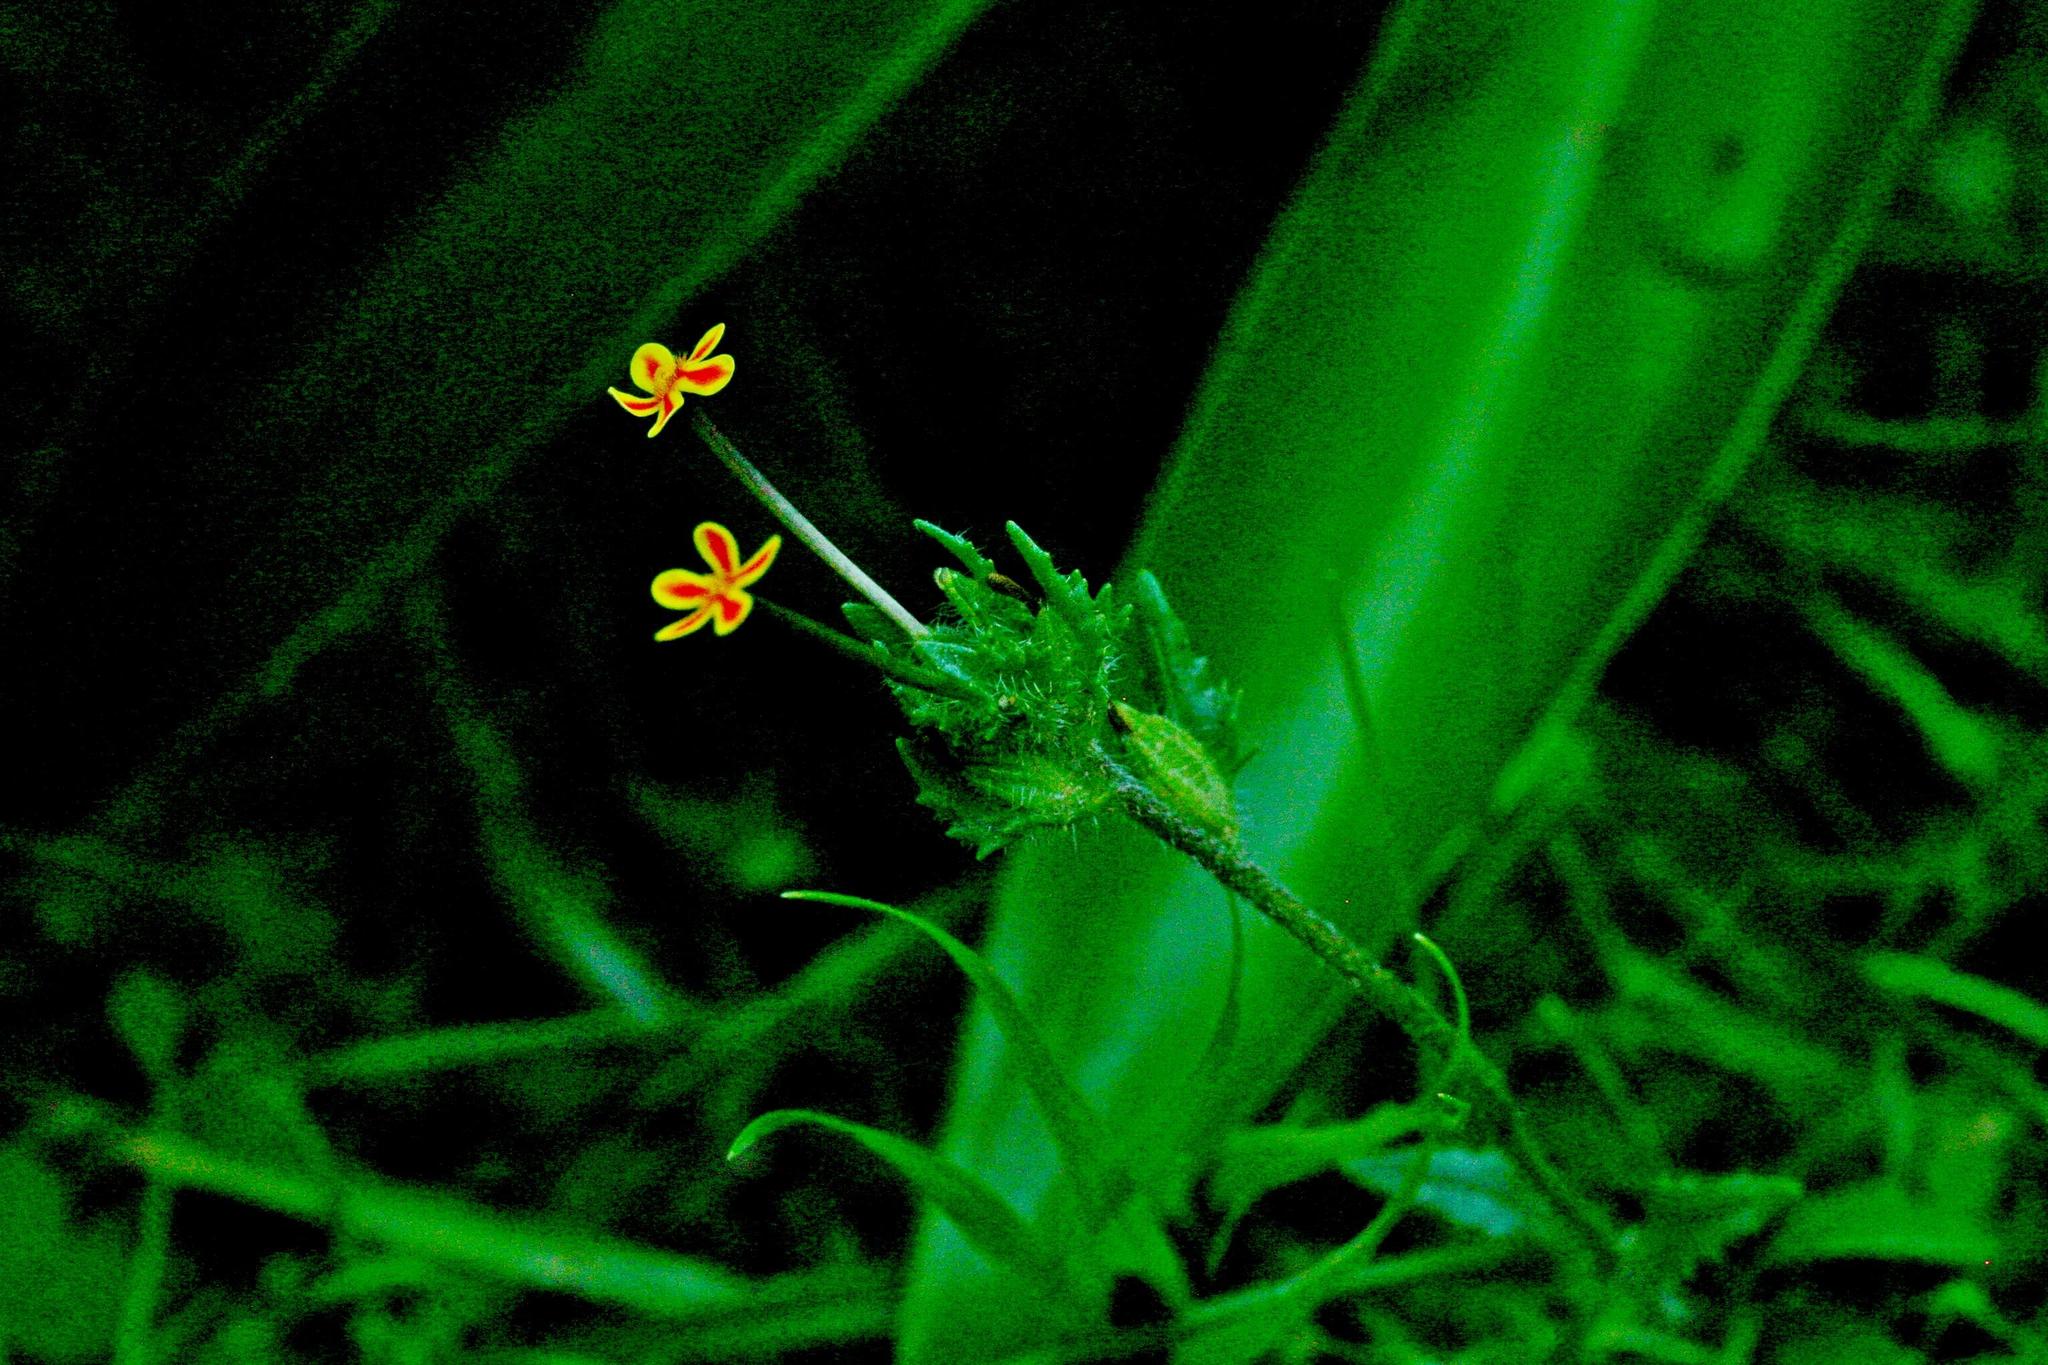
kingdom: Plantae
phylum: Tracheophyta
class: Magnoliopsida
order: Lamiales
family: Scrophulariaceae
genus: Zaluzianskya
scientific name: Zaluzianskya divaricata
